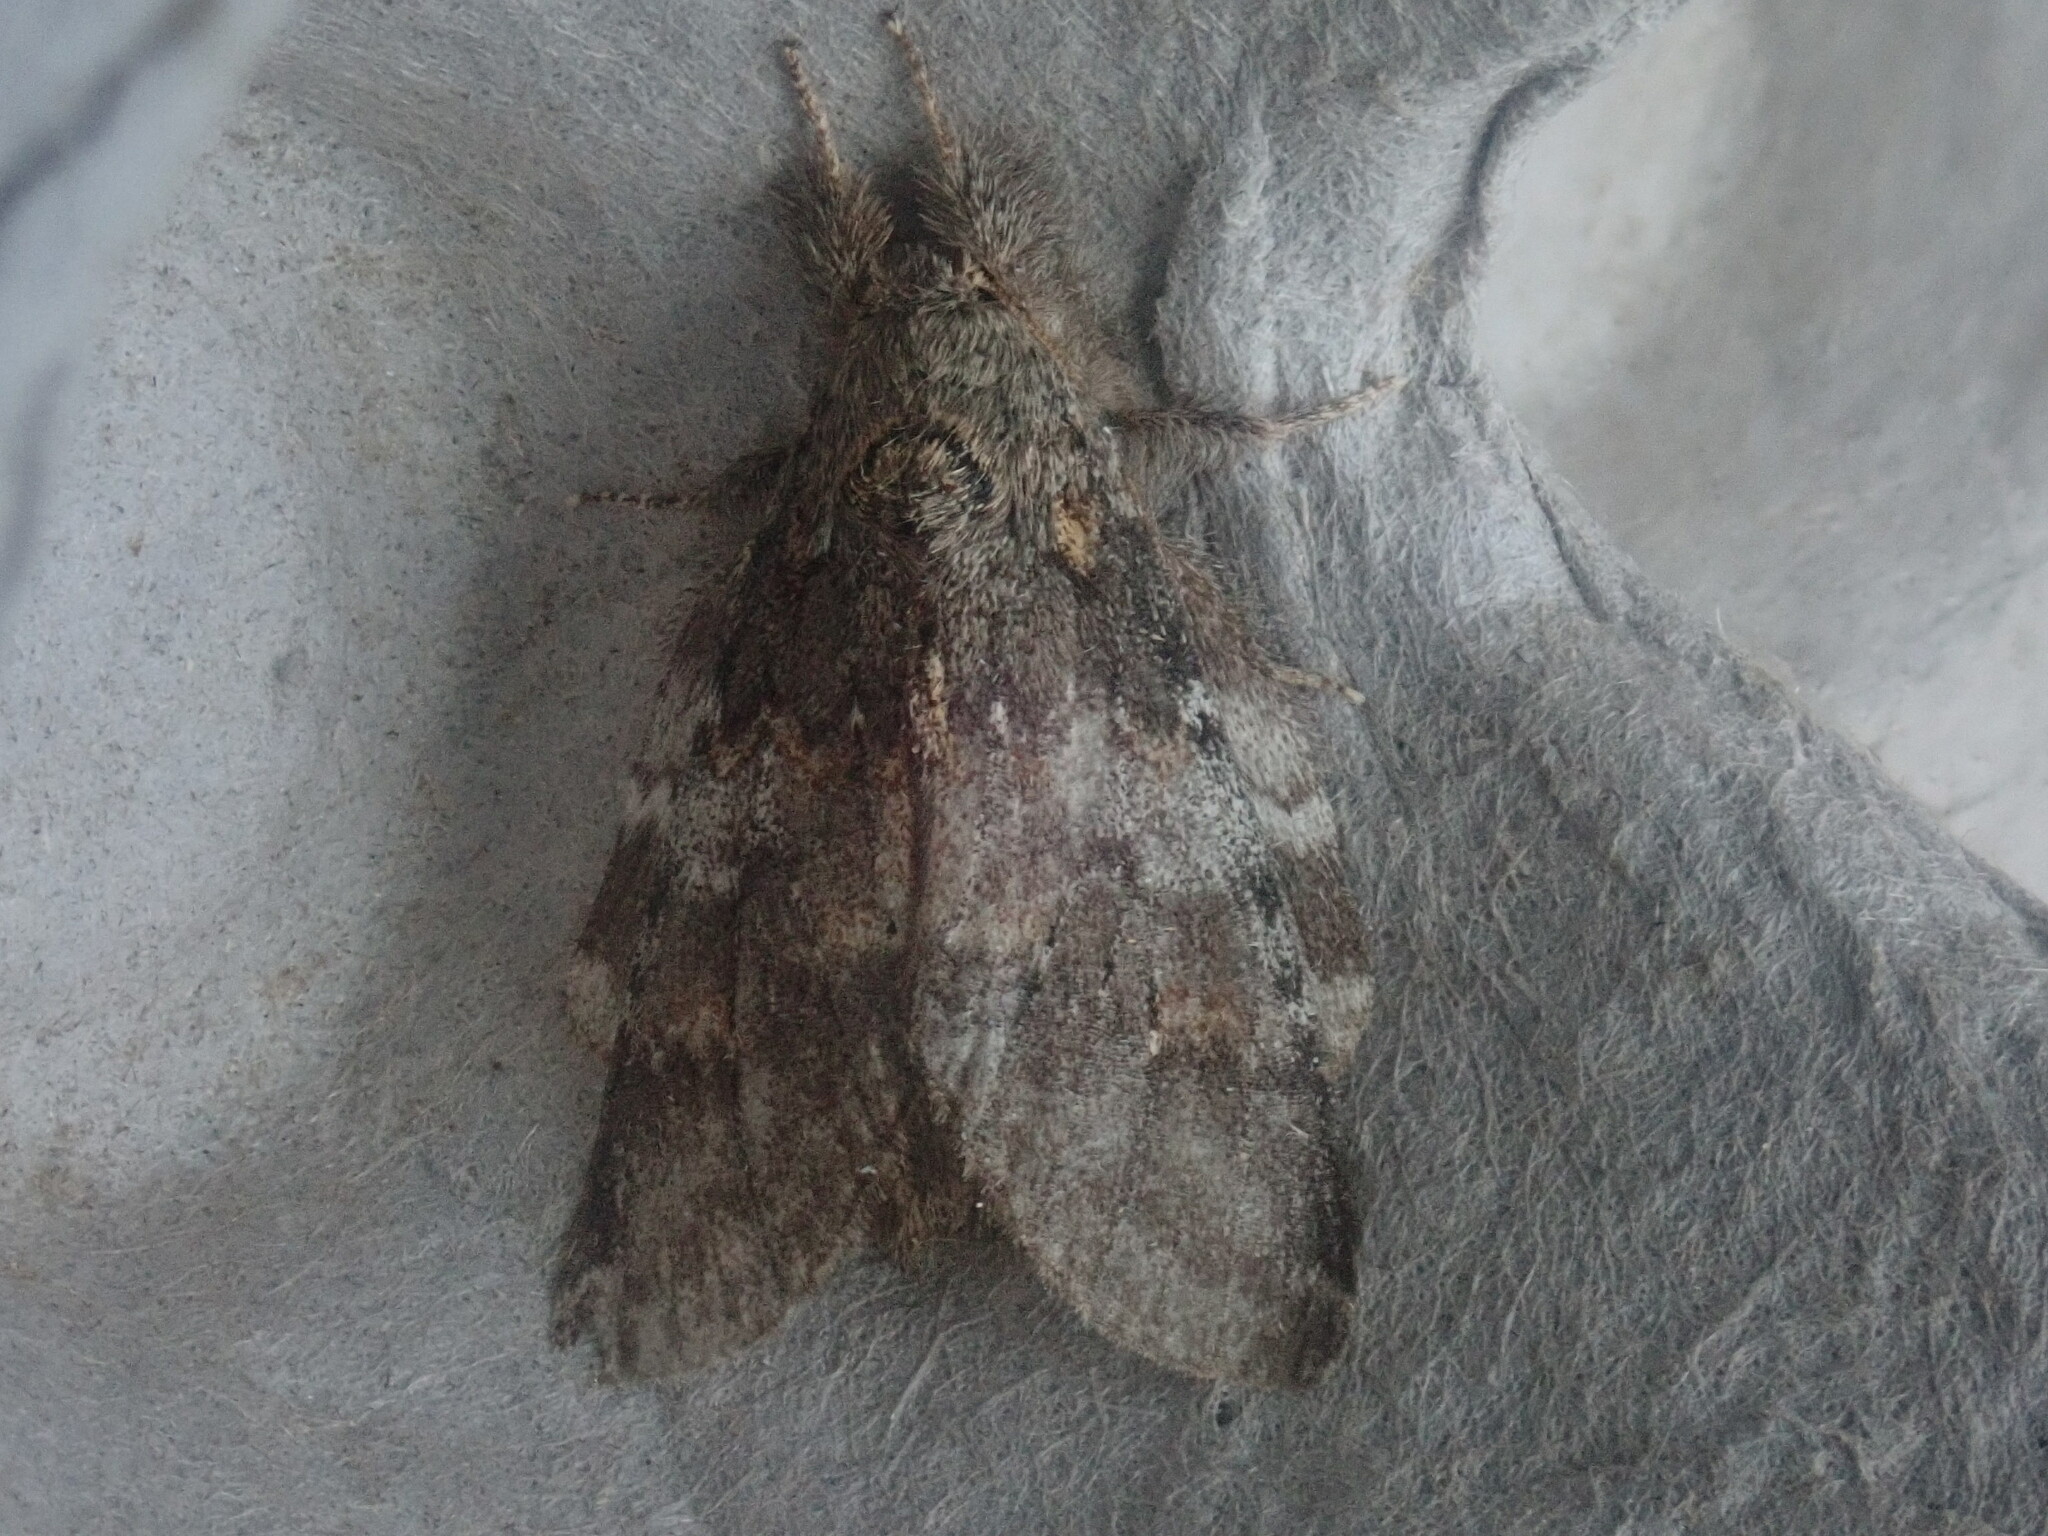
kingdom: Animalia
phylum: Arthropoda
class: Insecta
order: Lepidoptera
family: Notodontidae
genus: Peridea
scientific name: Peridea angulosa
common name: Angulose prominent
